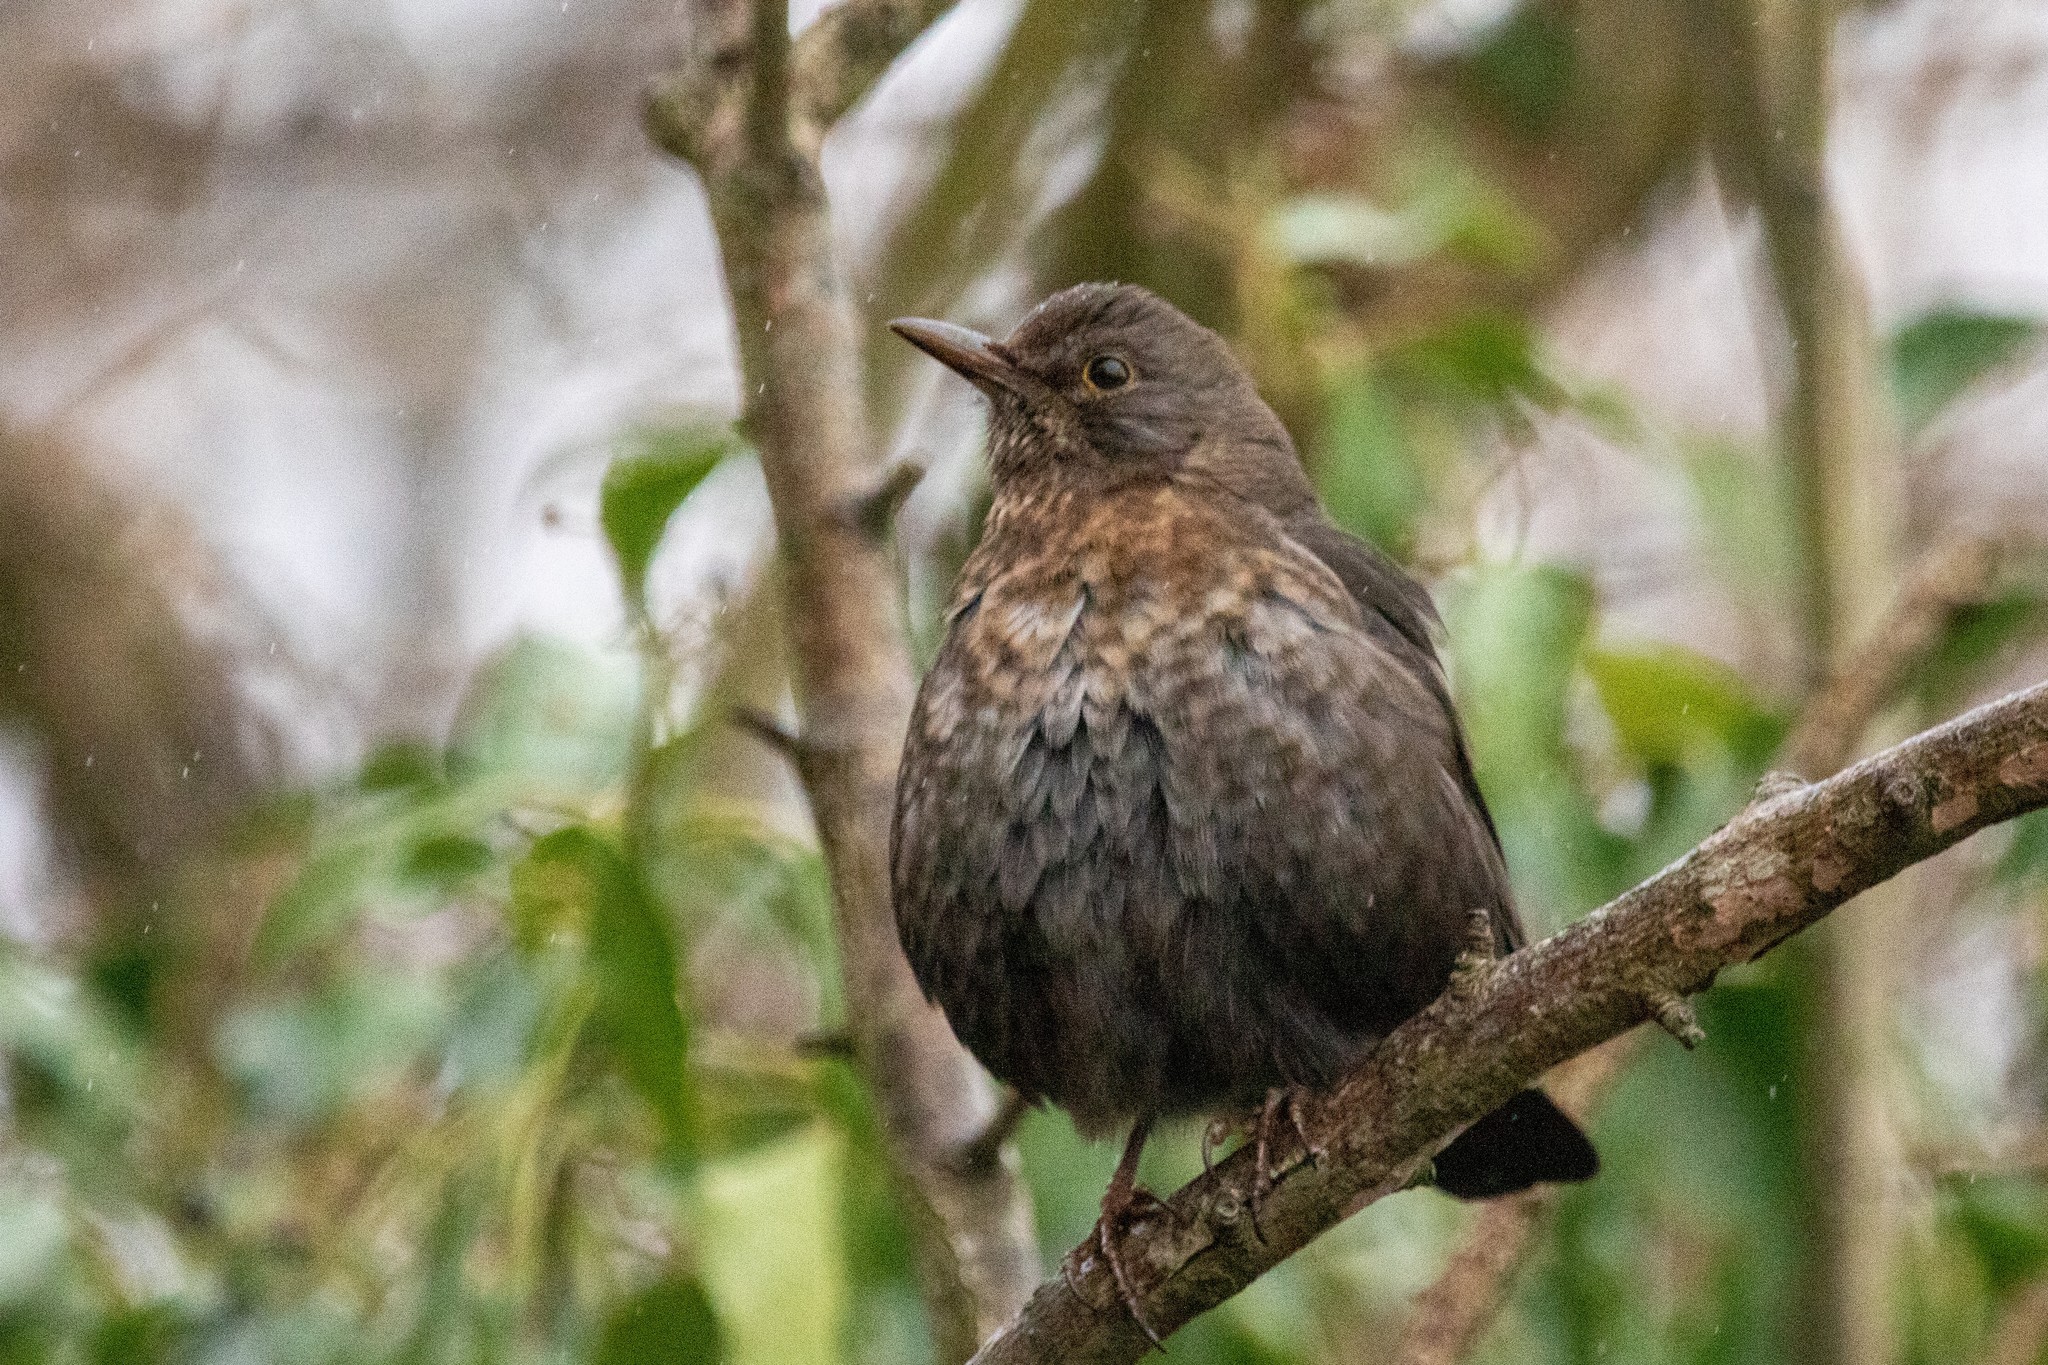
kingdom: Animalia
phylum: Chordata
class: Aves
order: Passeriformes
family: Turdidae
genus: Turdus
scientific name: Turdus merula
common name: Common blackbird
